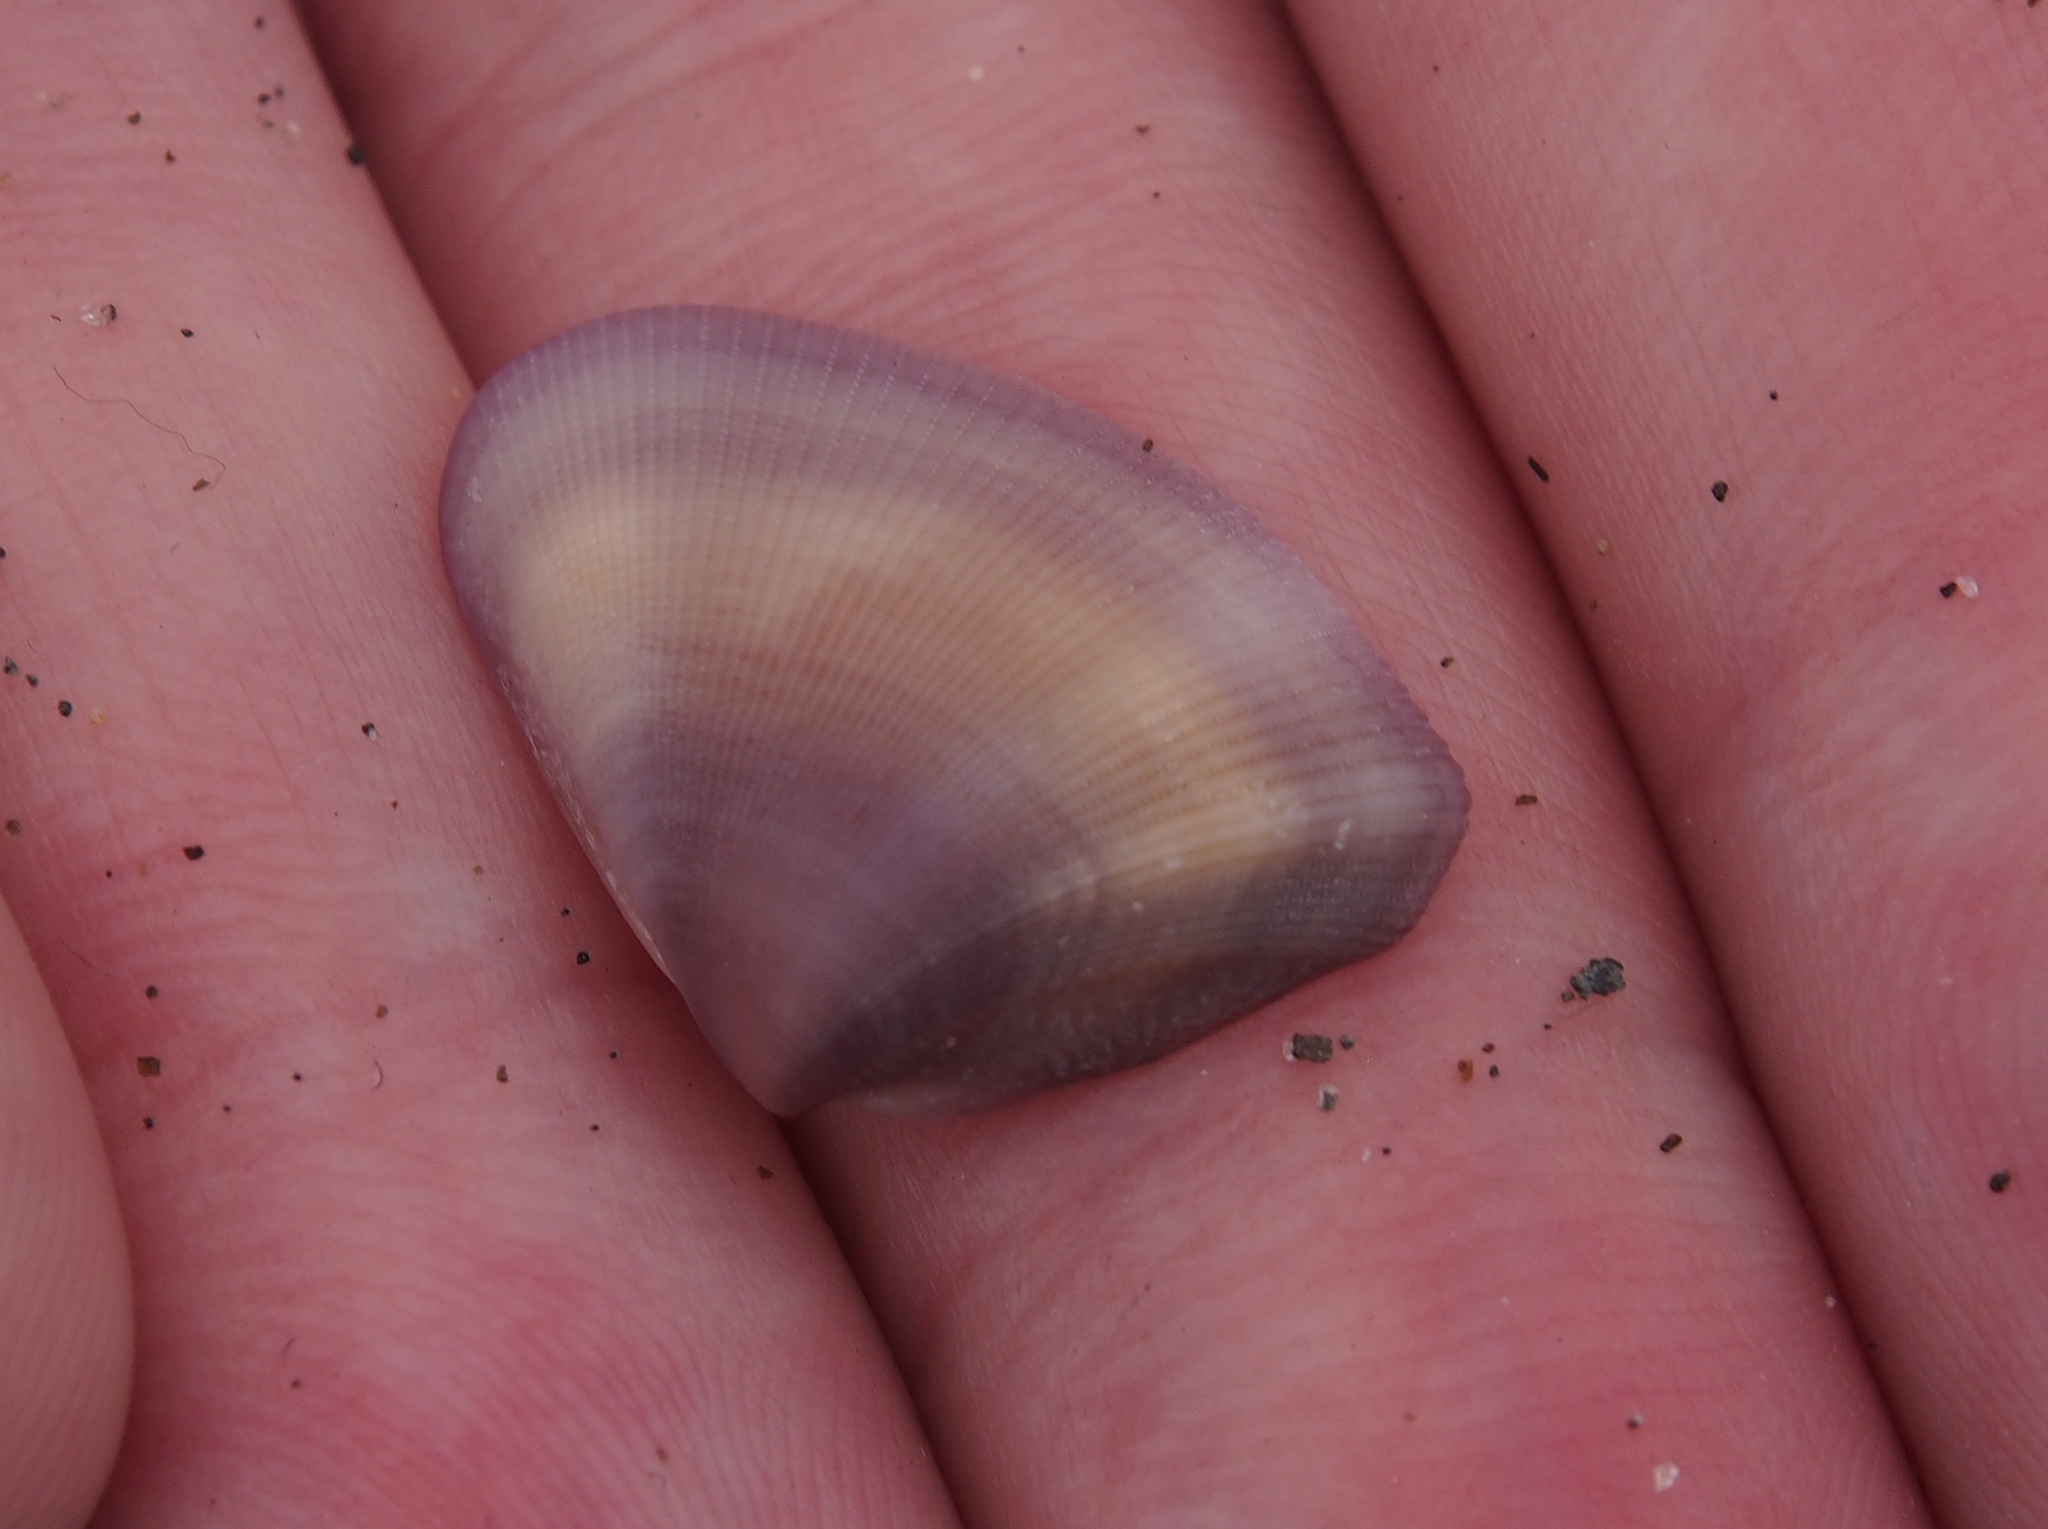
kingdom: Animalia
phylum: Mollusca
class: Bivalvia
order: Cardiida
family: Donacidae
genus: Donax
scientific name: Donax denticulatus
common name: Common caribbean coquina
